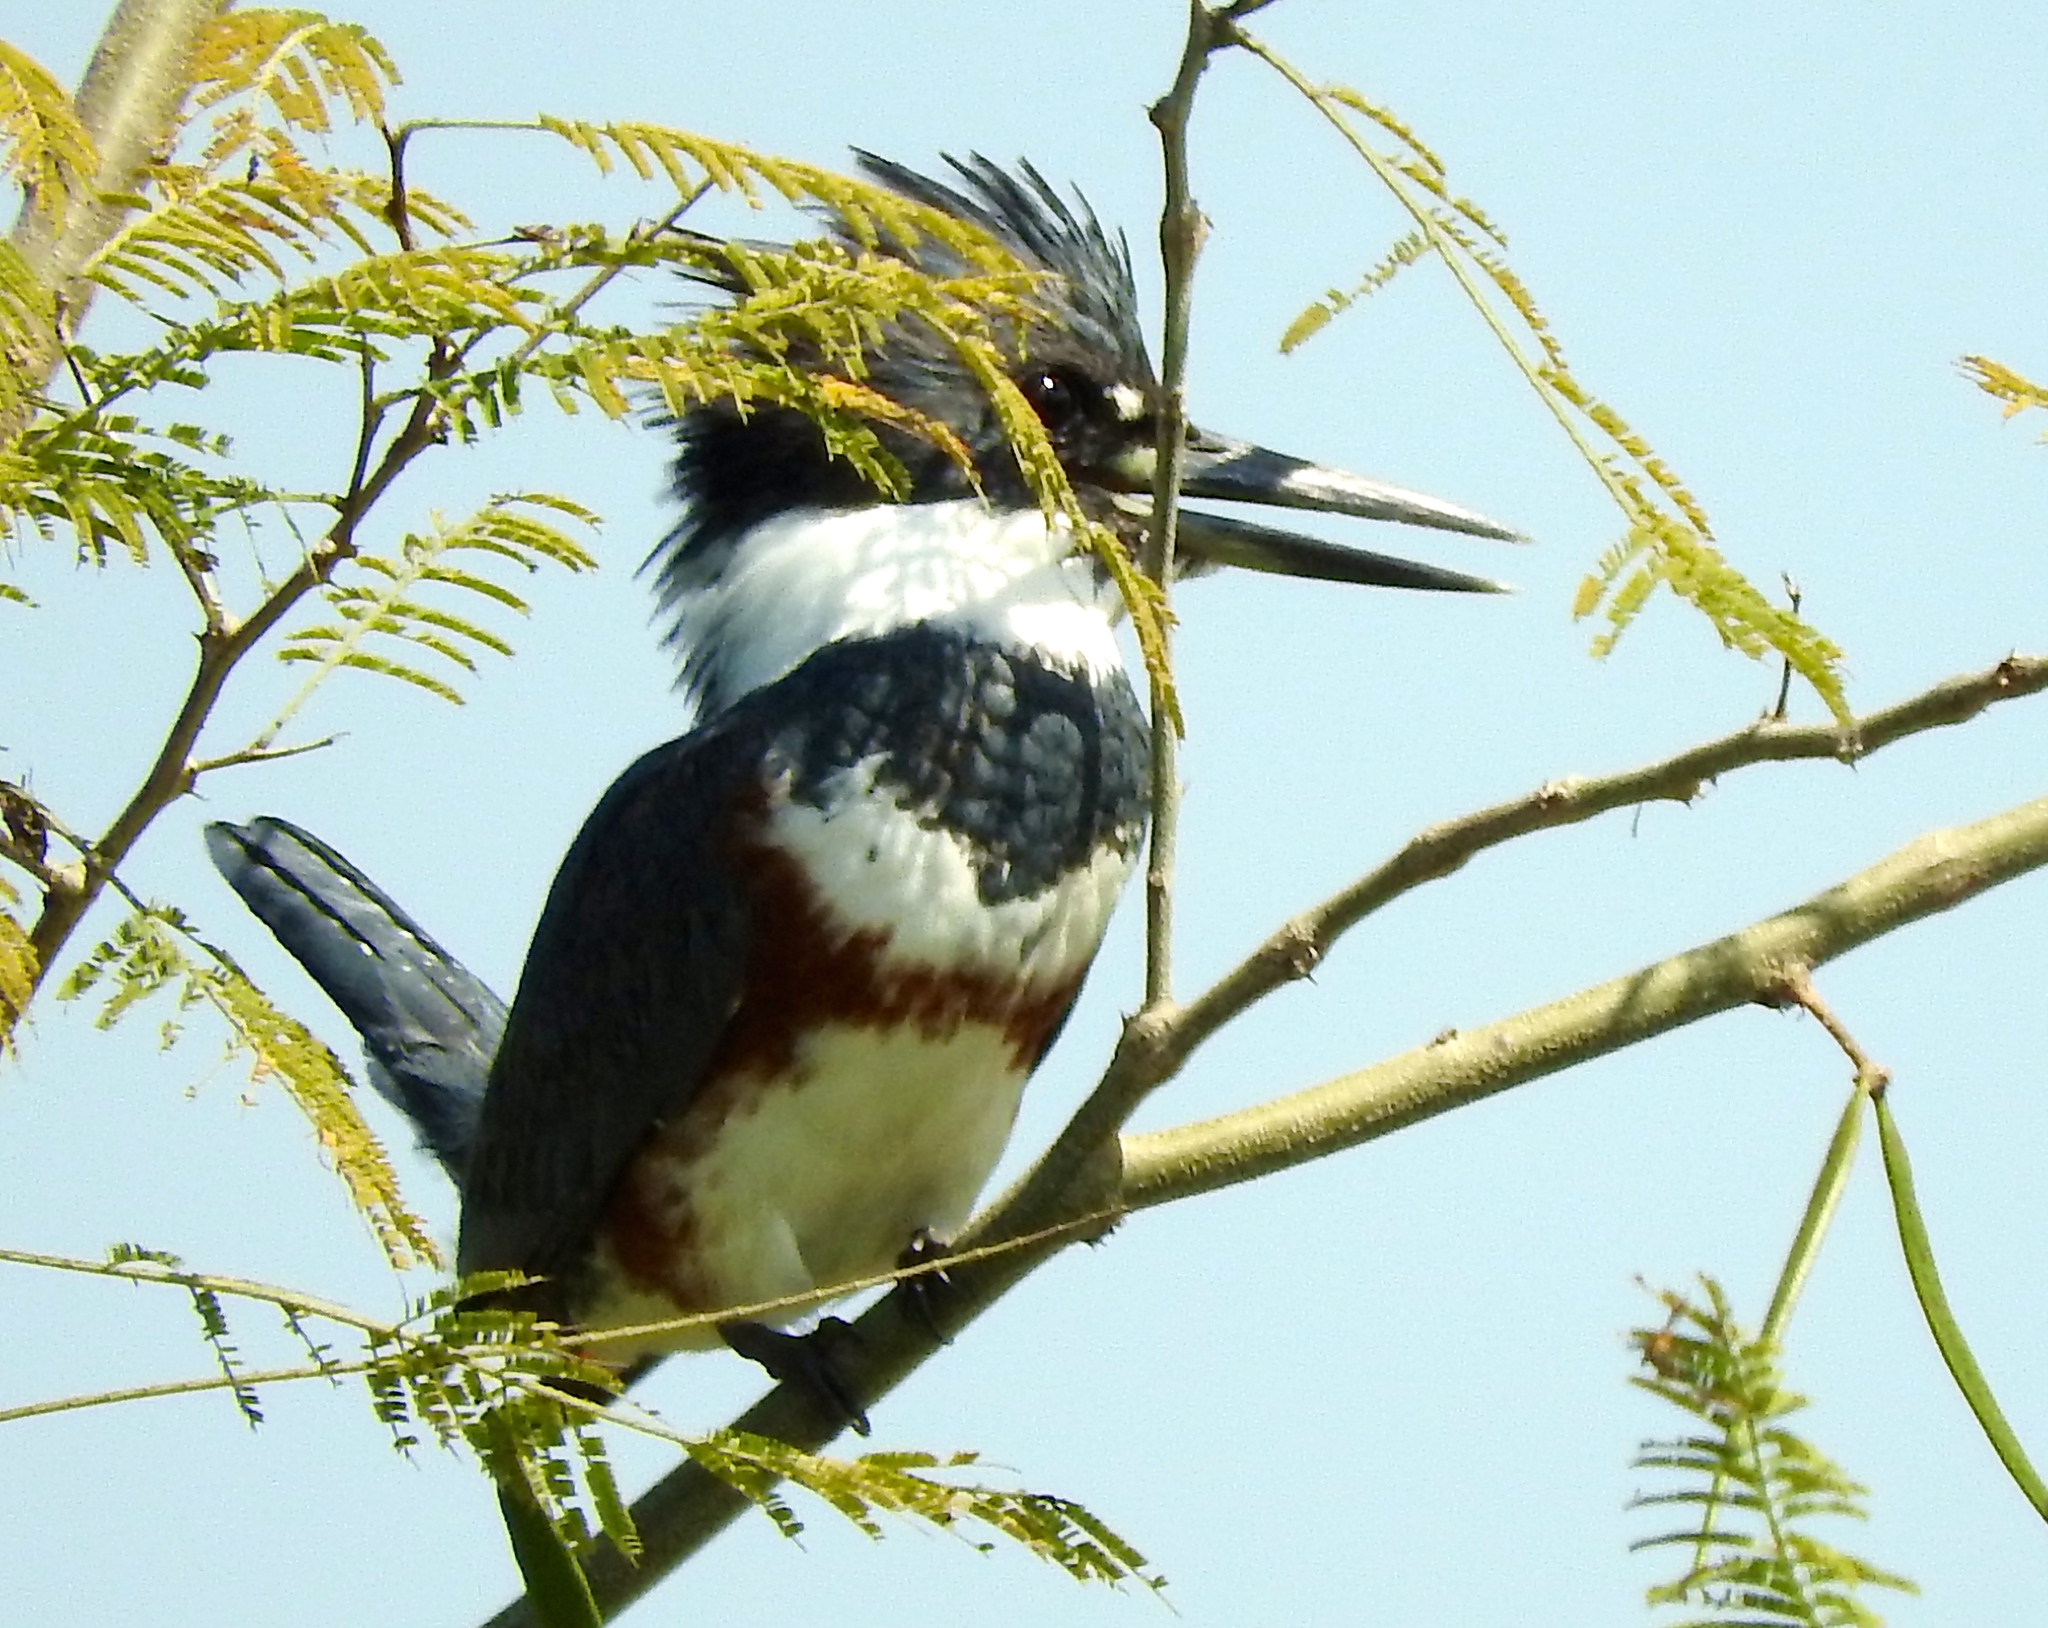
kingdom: Animalia
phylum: Chordata
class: Aves
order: Coraciiformes
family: Alcedinidae
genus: Megaceryle
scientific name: Megaceryle alcyon
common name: Belted kingfisher
